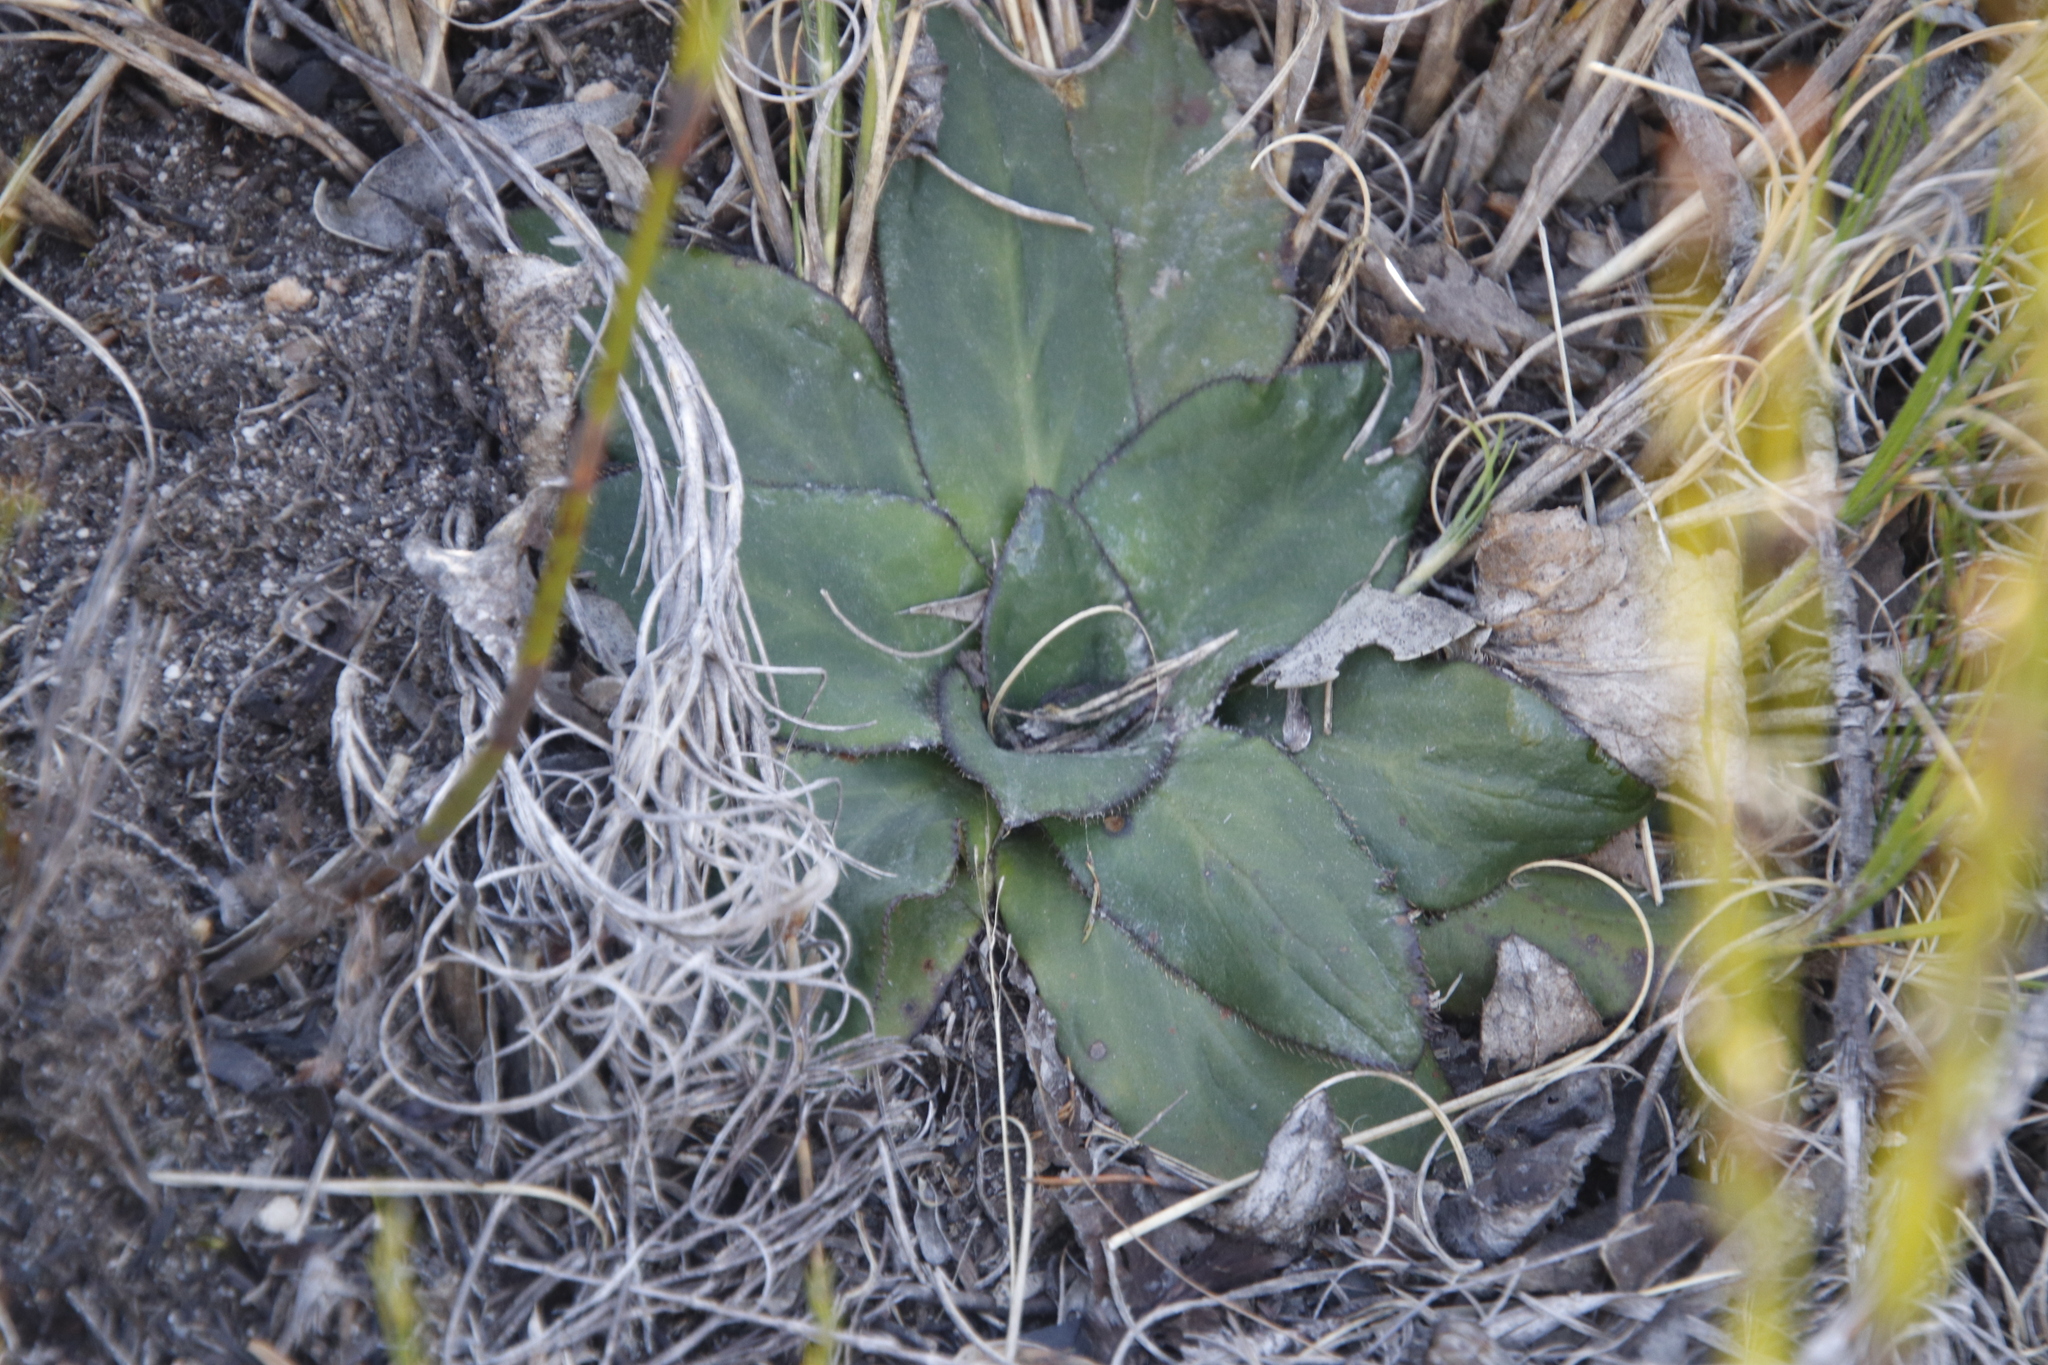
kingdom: Plantae
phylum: Tracheophyta
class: Magnoliopsida
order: Apiales
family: Apiaceae
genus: Hermas
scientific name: Hermas ciliata
